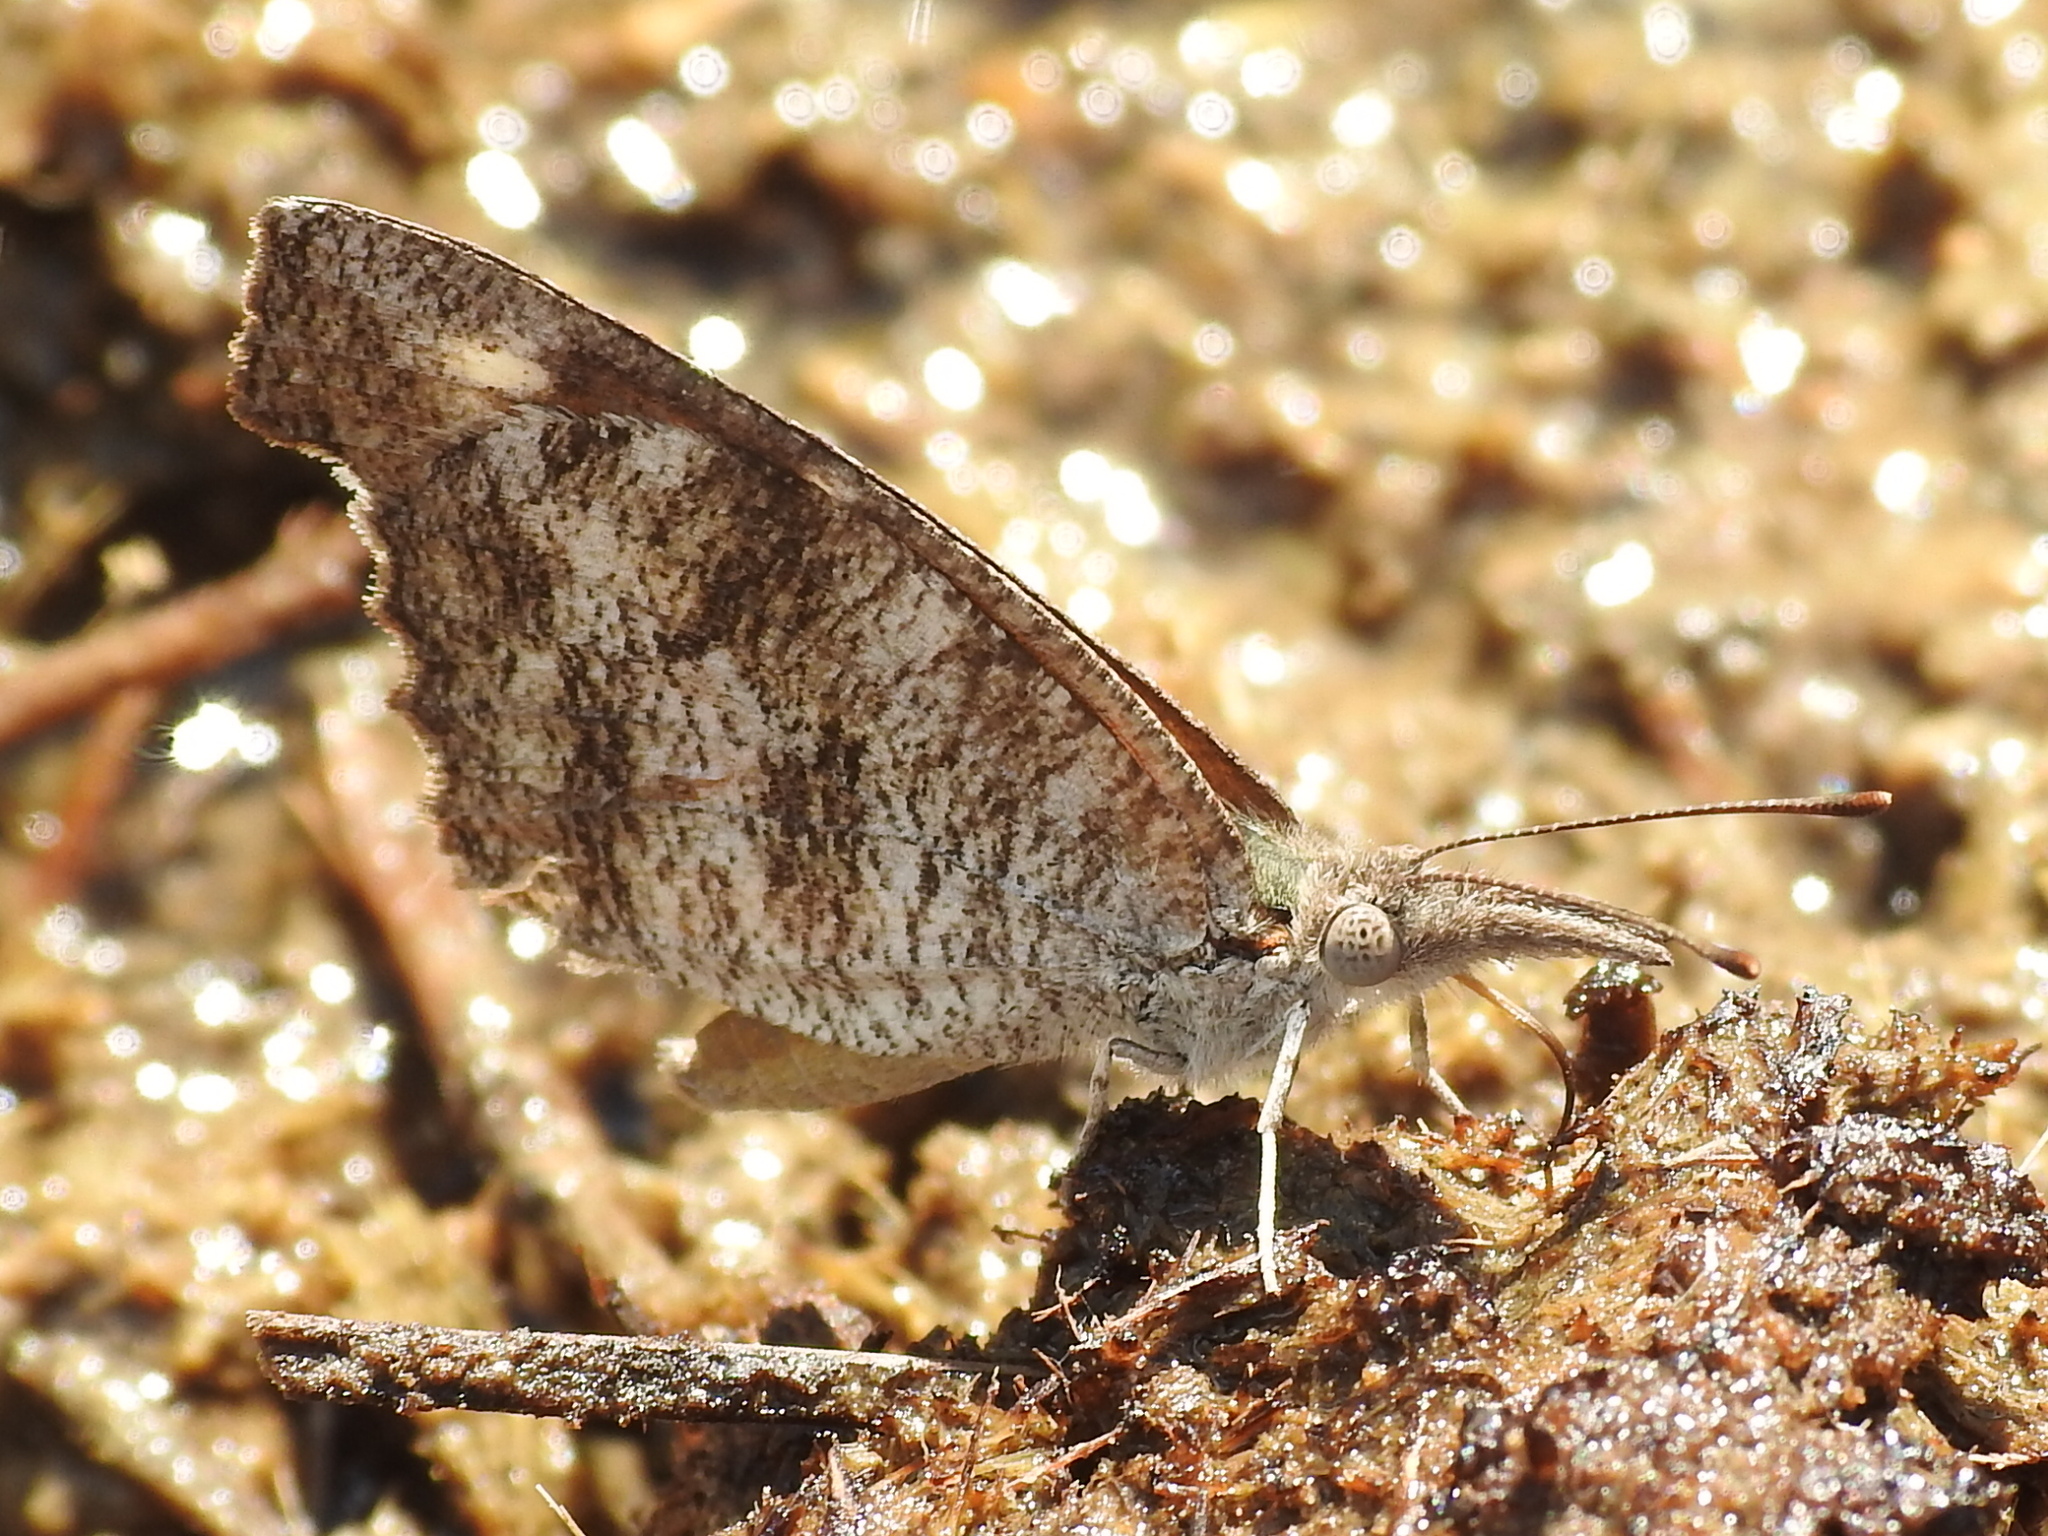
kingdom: Animalia
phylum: Arthropoda
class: Insecta
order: Lepidoptera
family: Nymphalidae
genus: Libytheana
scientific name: Libytheana carinenta
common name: American snout
